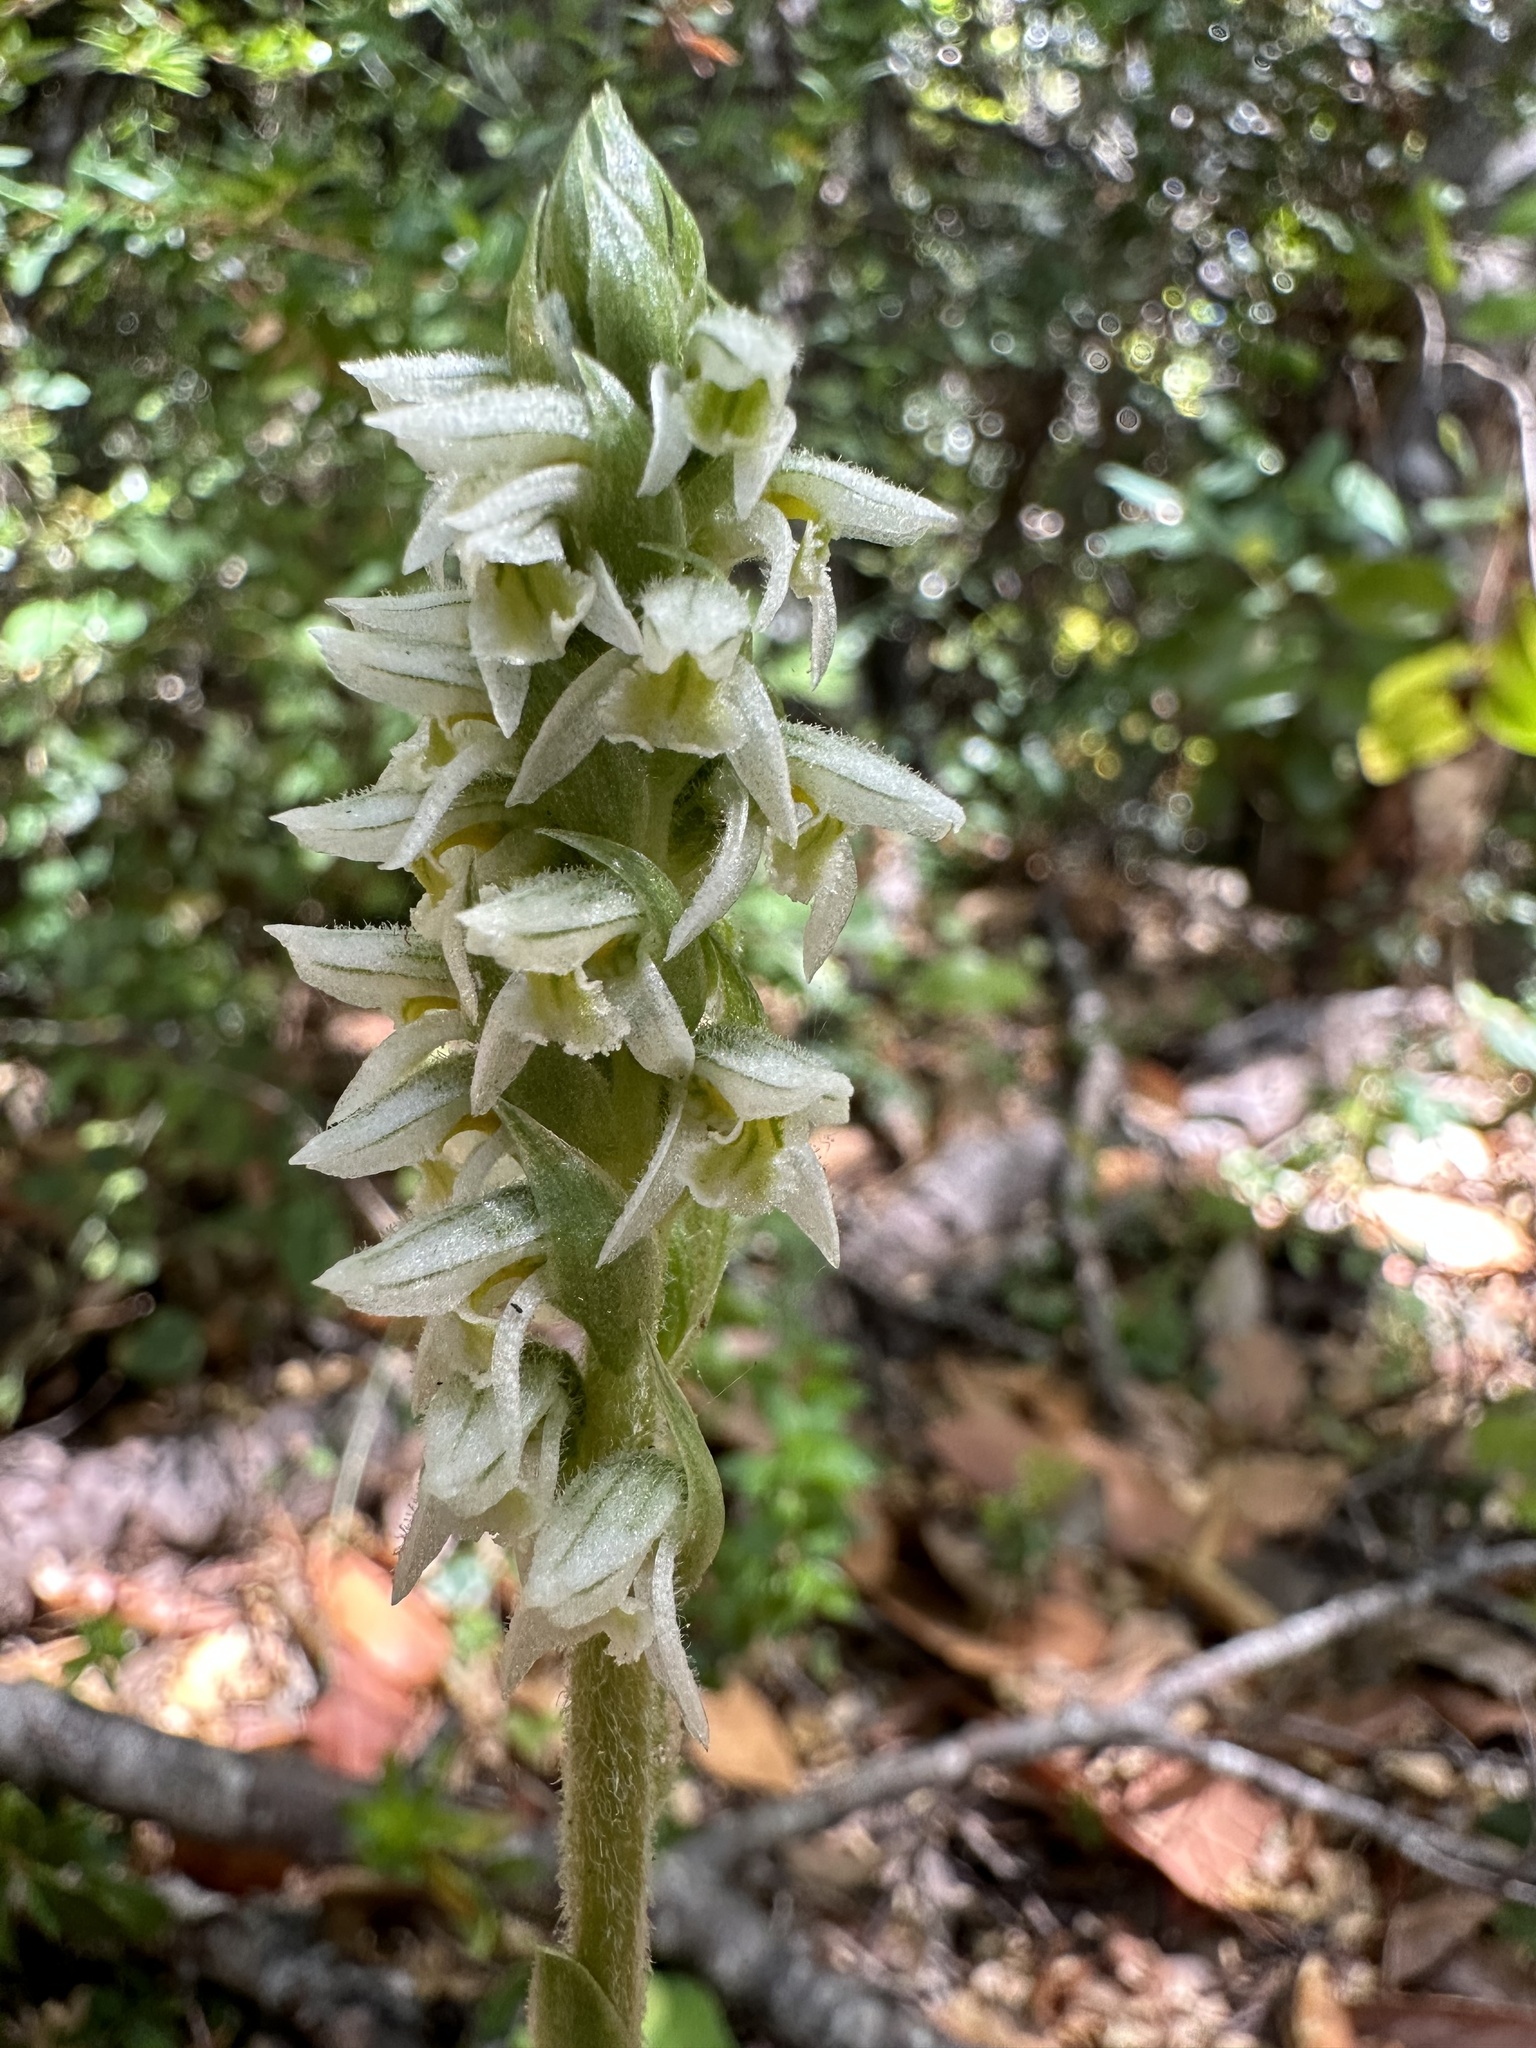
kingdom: Plantae
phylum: Tracheophyta
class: Liliopsida
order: Asparagales
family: Orchidaceae
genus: Brachystele
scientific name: Brachystele unilateralis
